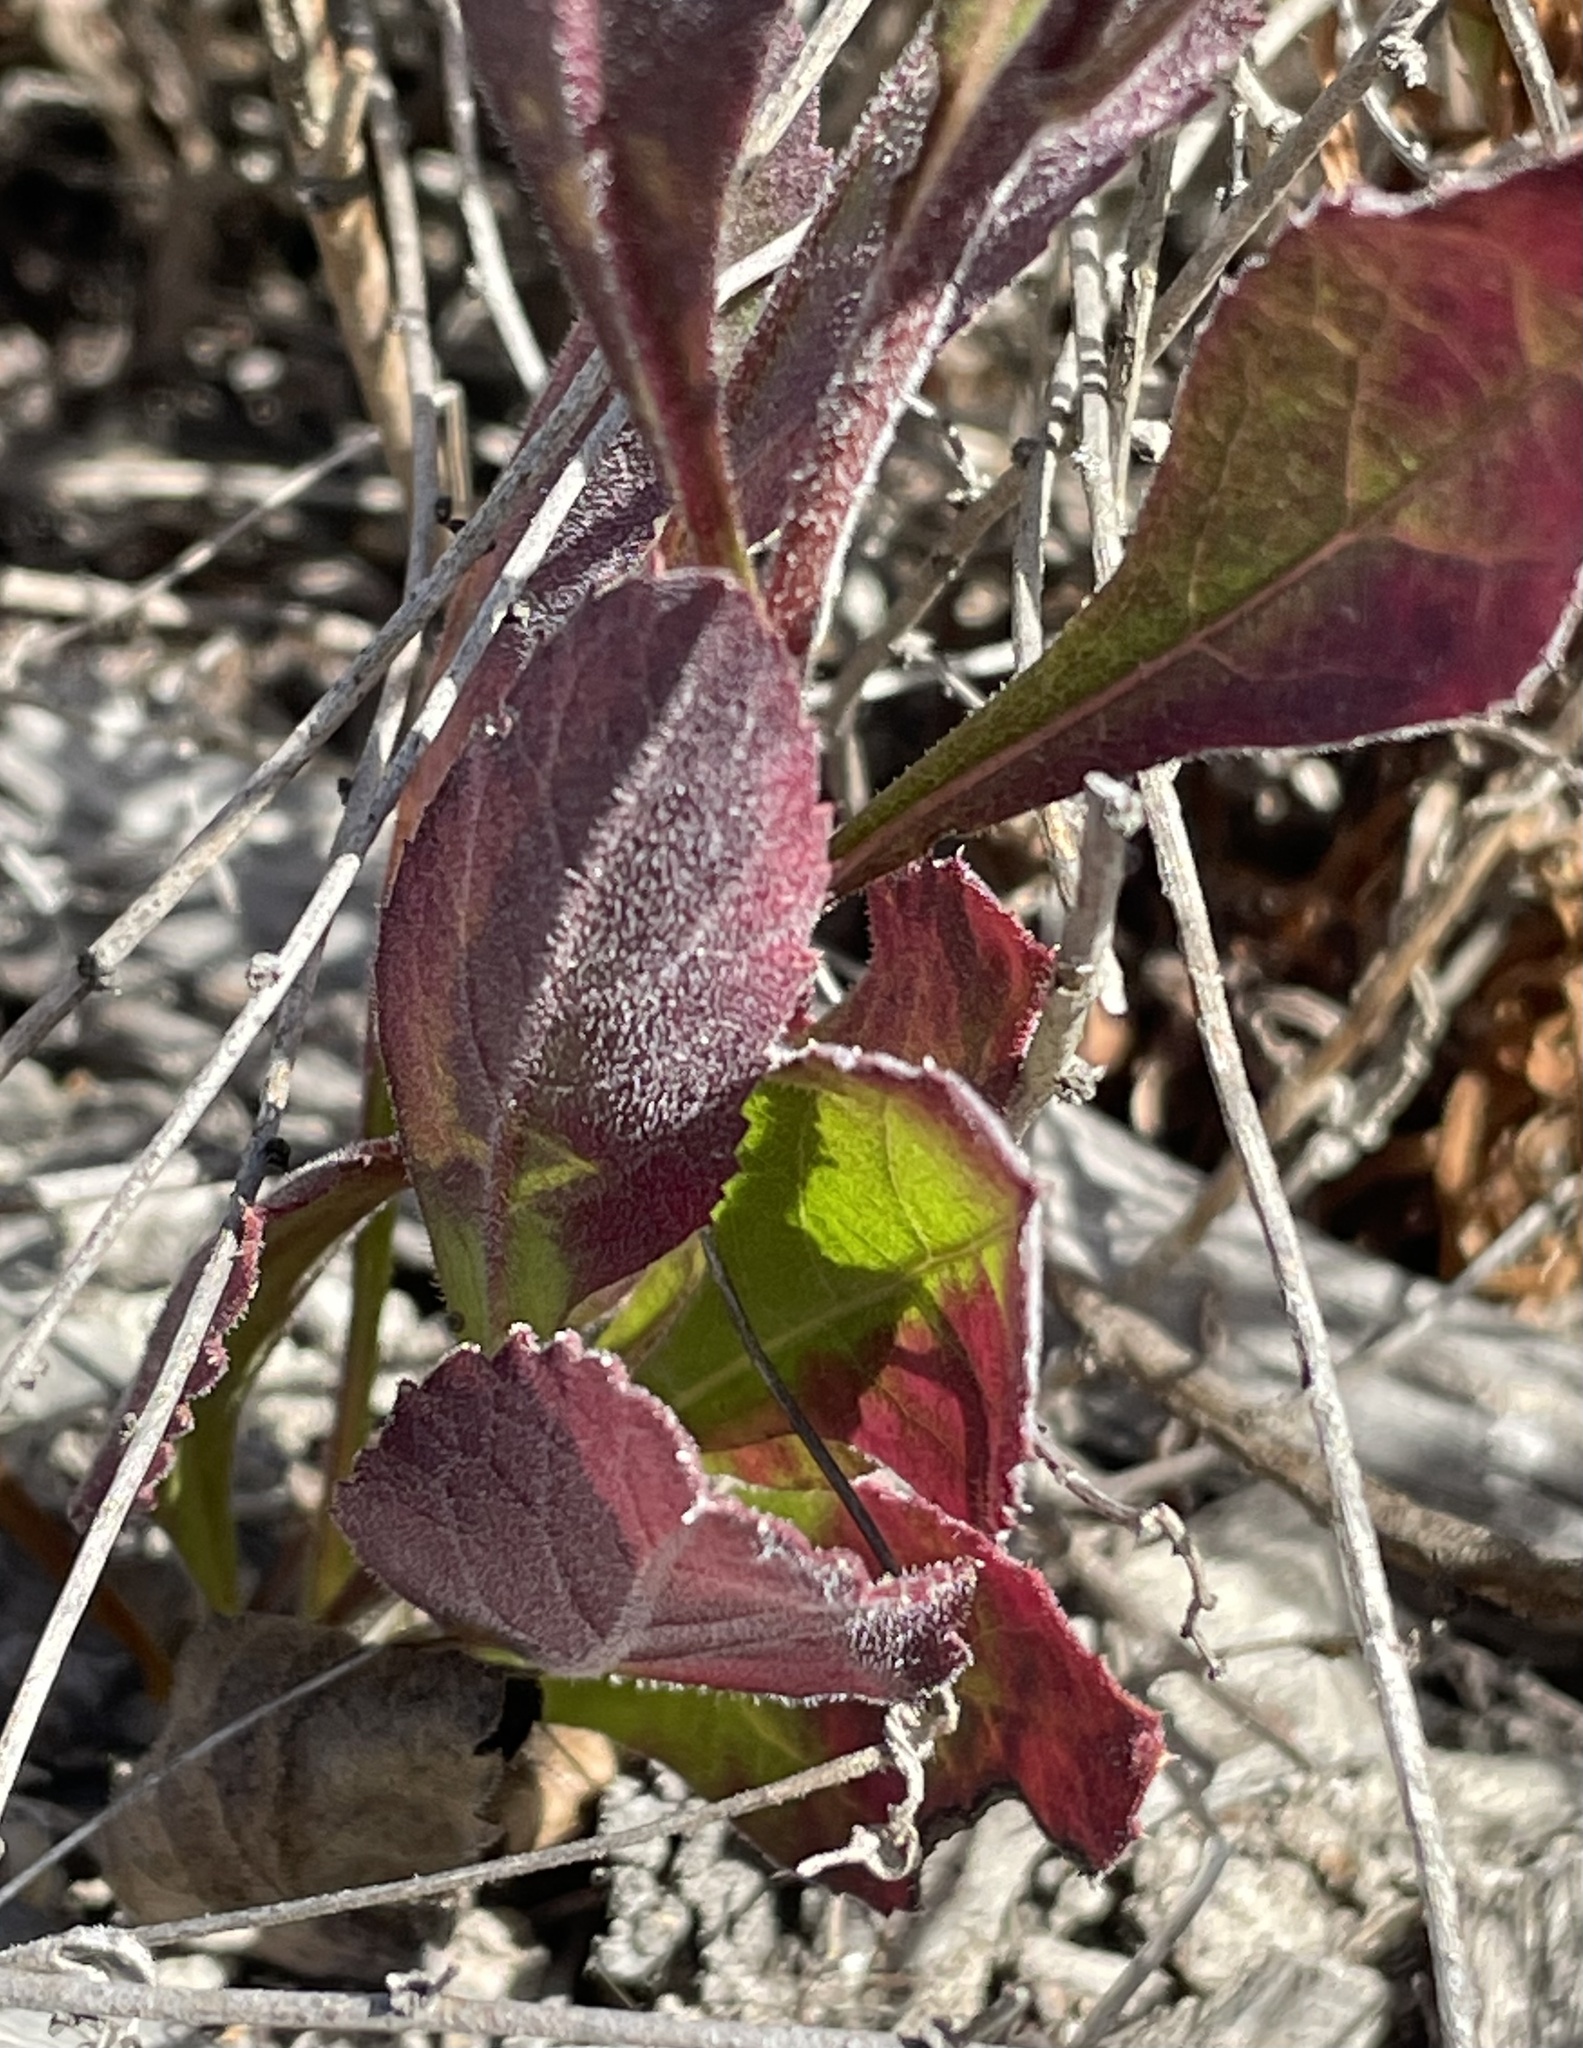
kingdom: Plantae
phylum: Tracheophyta
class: Magnoliopsida
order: Asterales
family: Asteraceae
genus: Eurybia
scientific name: Eurybia radulina
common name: Rough-leaved aster
